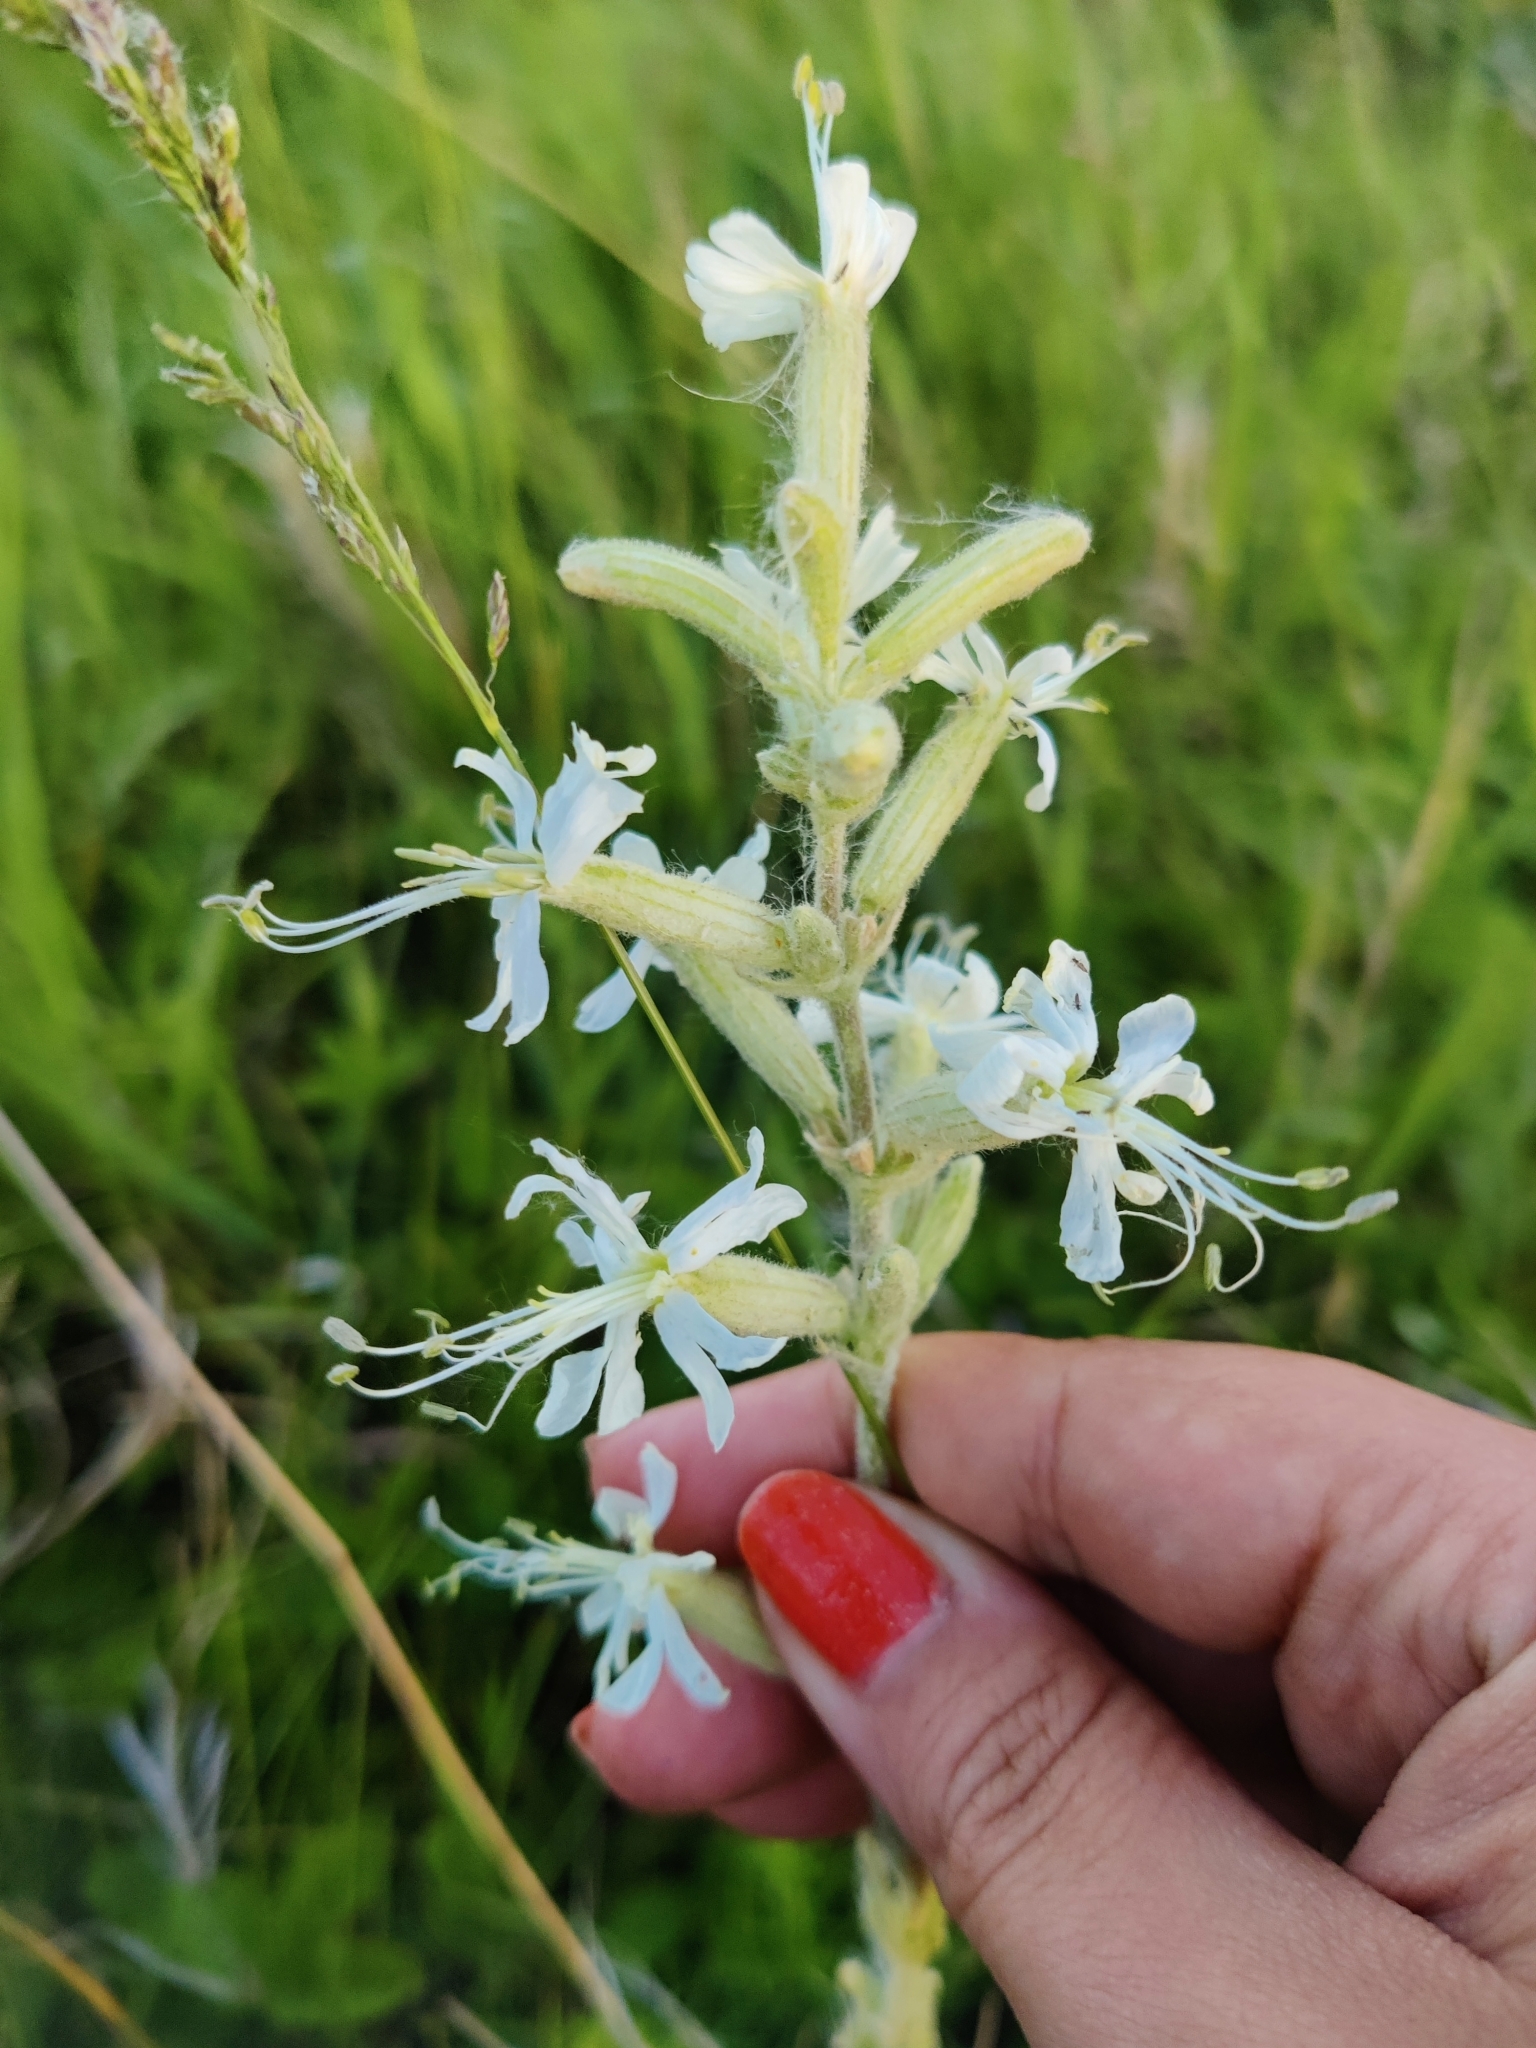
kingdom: Plantae
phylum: Tracheophyta
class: Magnoliopsida
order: Caryophyllales
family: Caryophyllaceae
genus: Silene
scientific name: Silene viscosa
